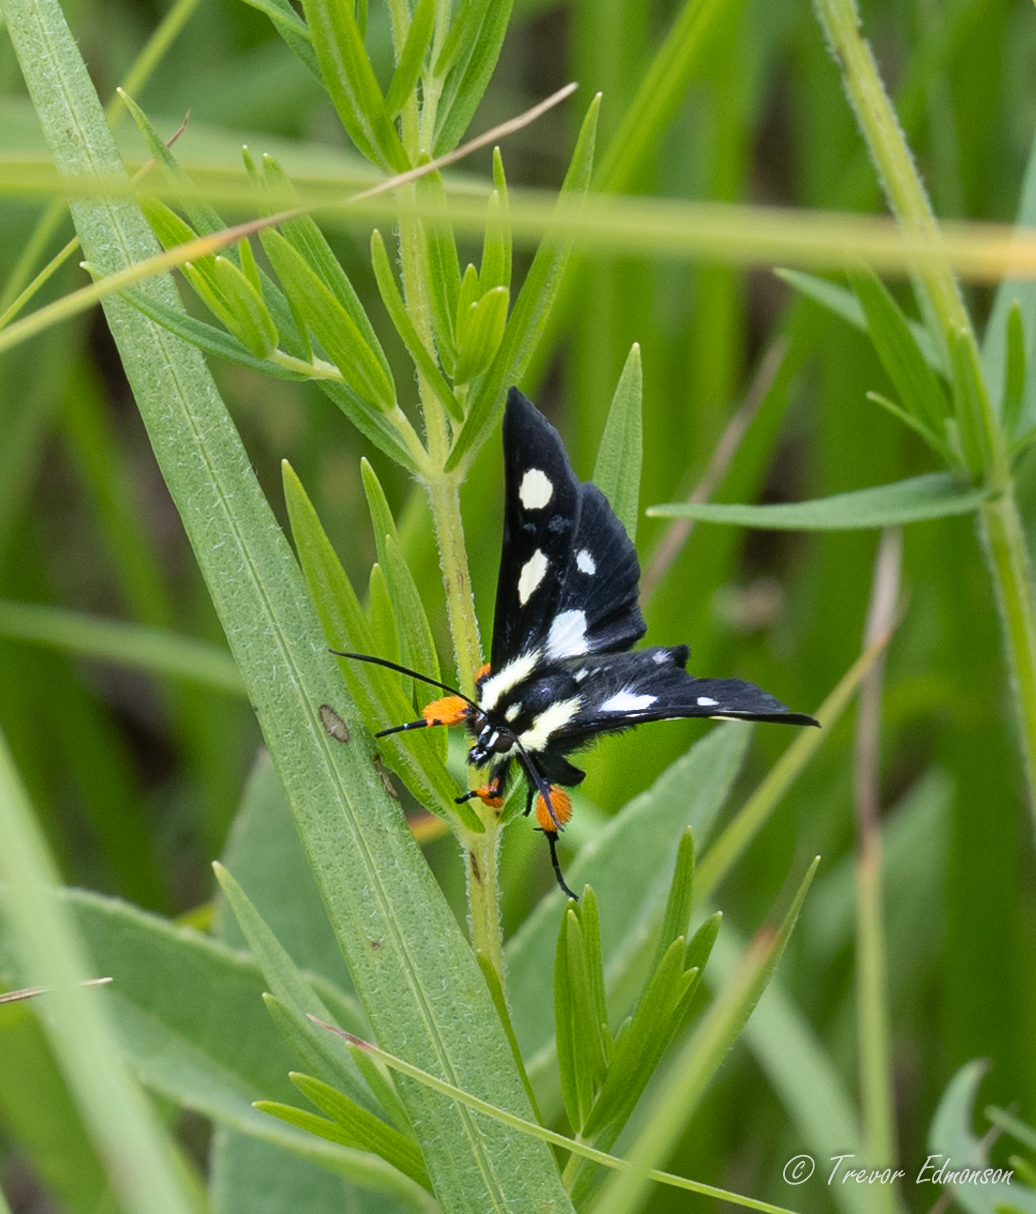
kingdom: Animalia
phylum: Arthropoda
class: Insecta
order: Lepidoptera
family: Noctuidae
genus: Alypia
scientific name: Alypia octomaculata
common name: Eight-spotted forester
